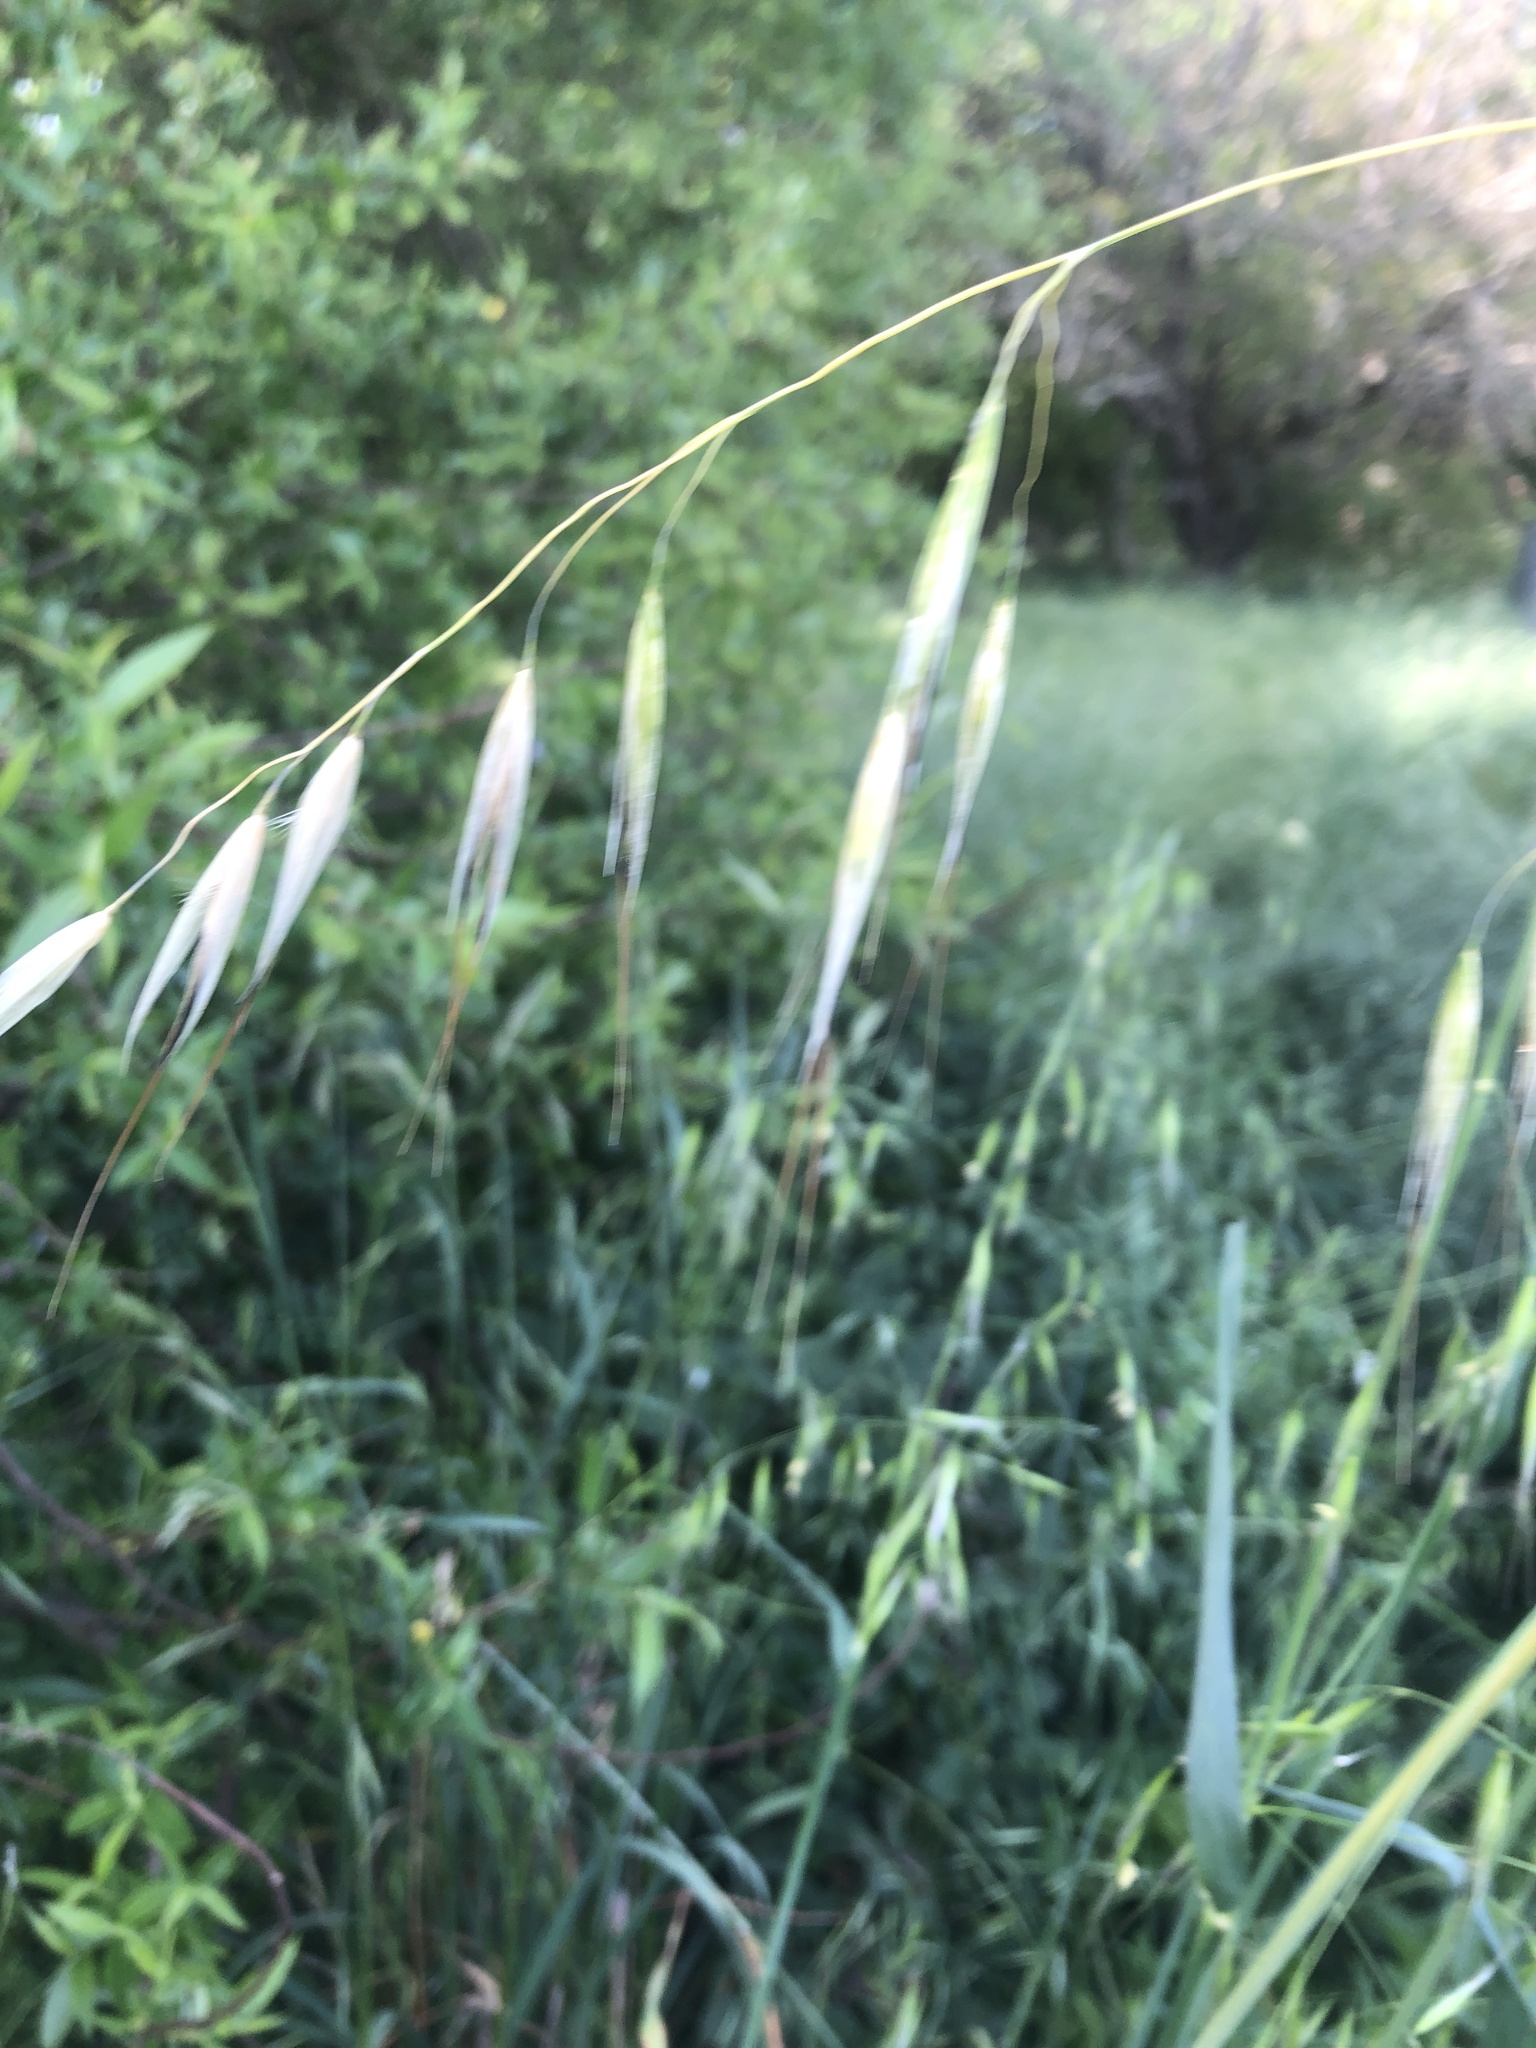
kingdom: Plantae
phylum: Tracheophyta
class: Liliopsida
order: Poales
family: Poaceae
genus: Avena
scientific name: Avena fatua
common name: Wild oat
